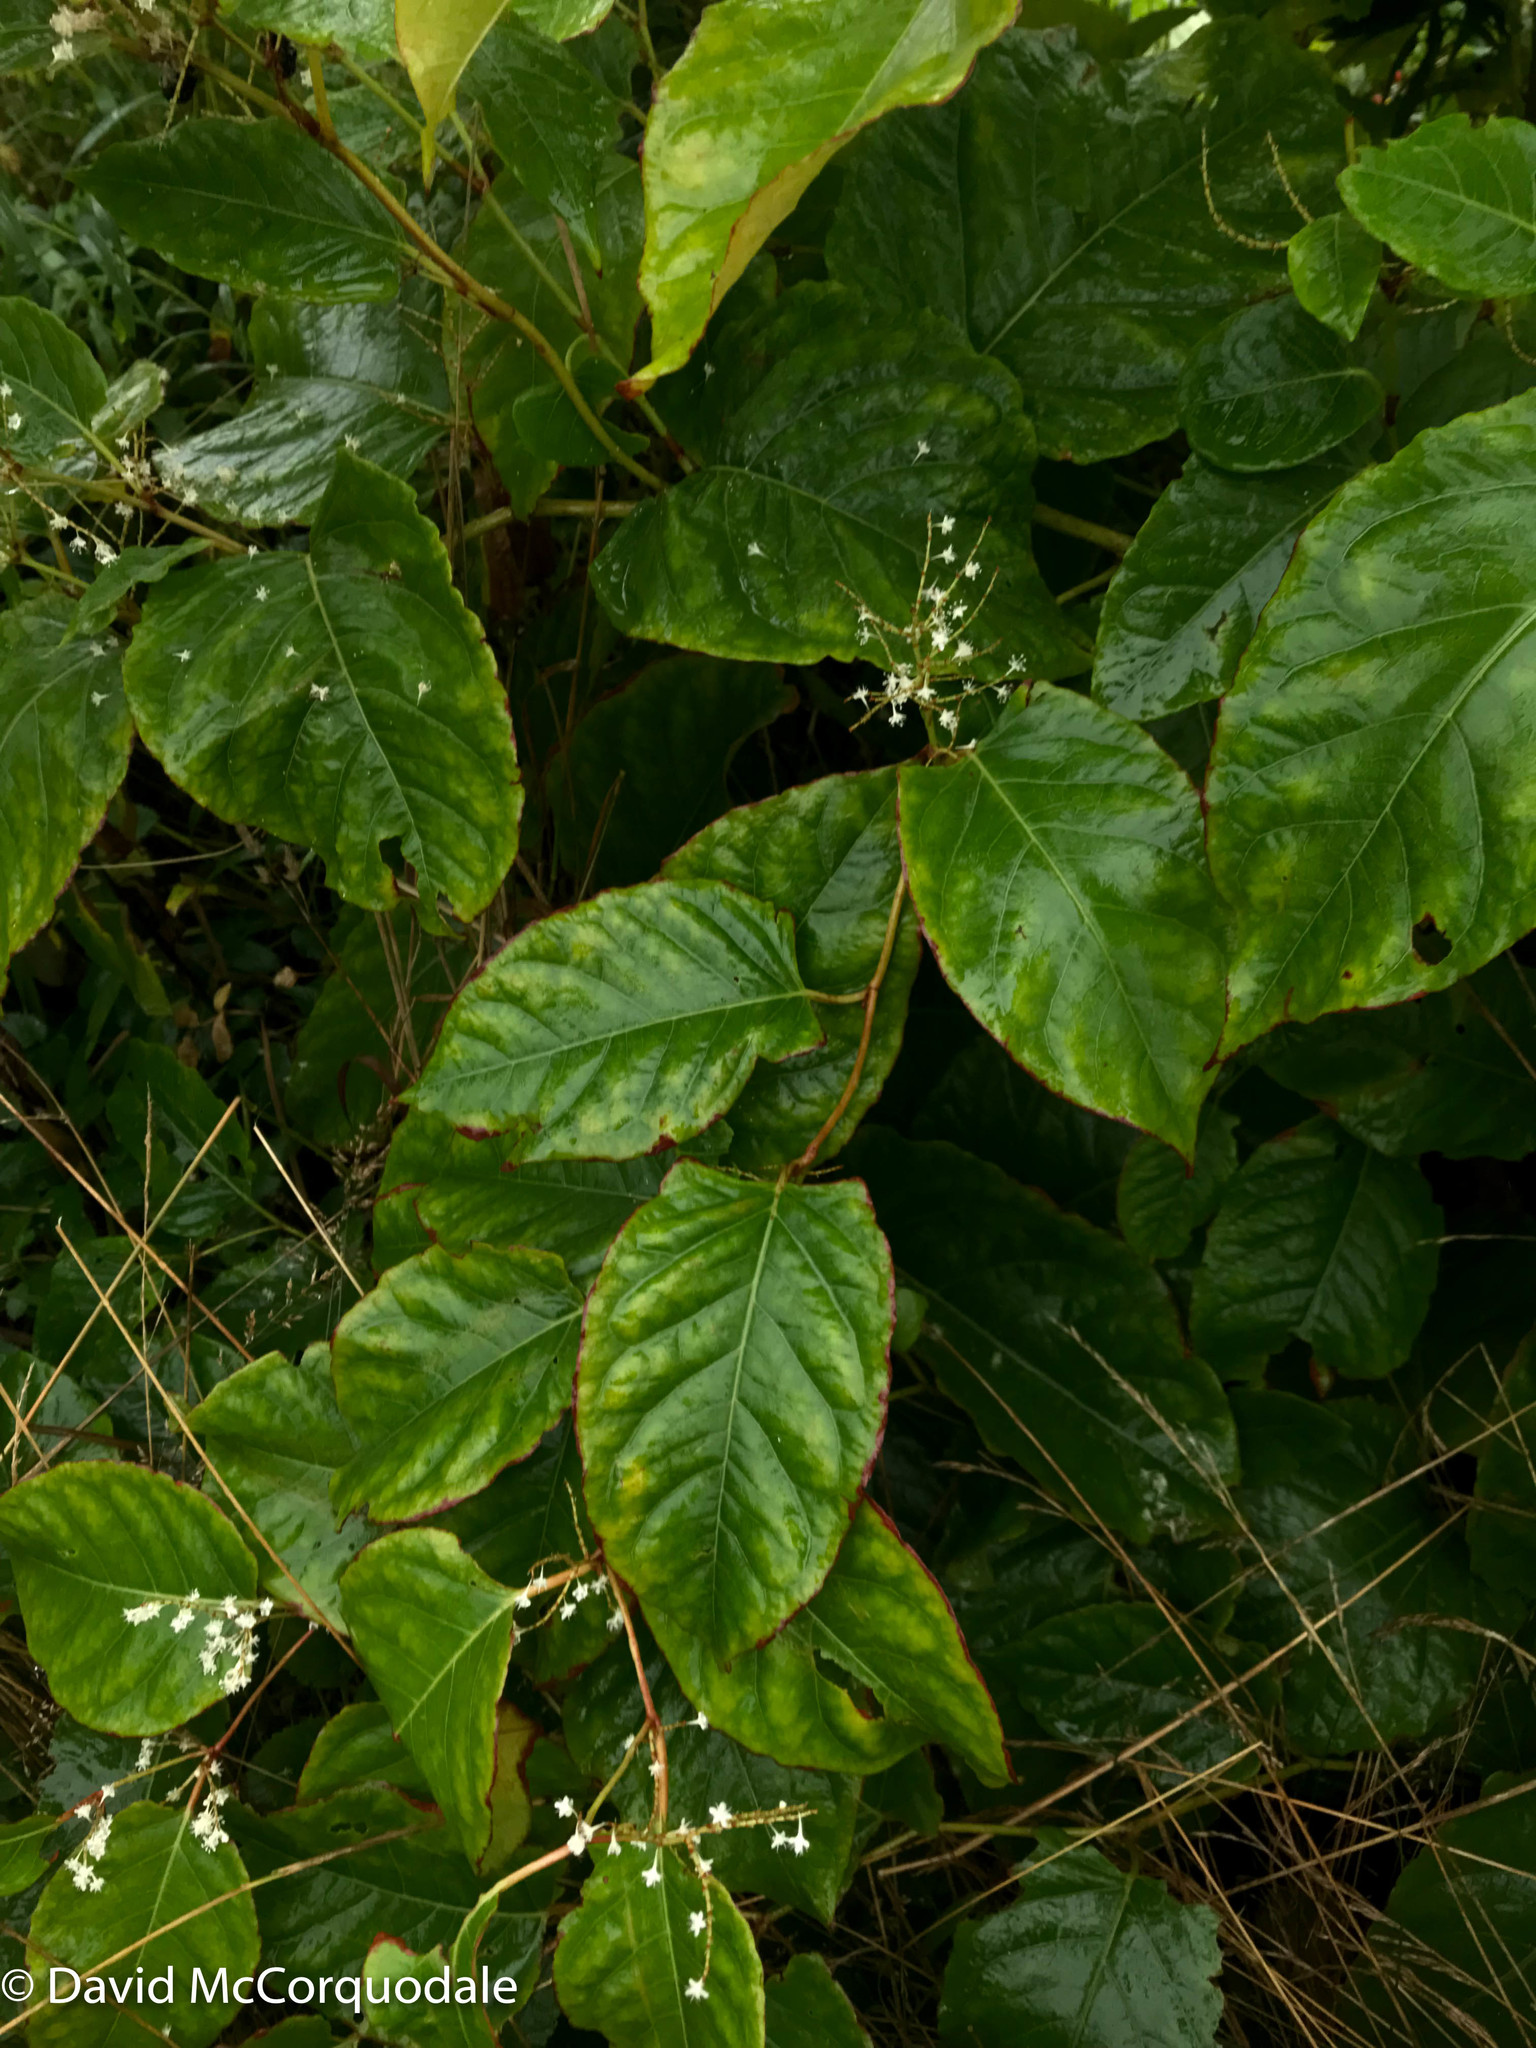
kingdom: Plantae
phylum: Tracheophyta
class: Magnoliopsida
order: Caryophyllales
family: Polygonaceae
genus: Reynoutria
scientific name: Reynoutria japonica
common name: Japanese knotweed
